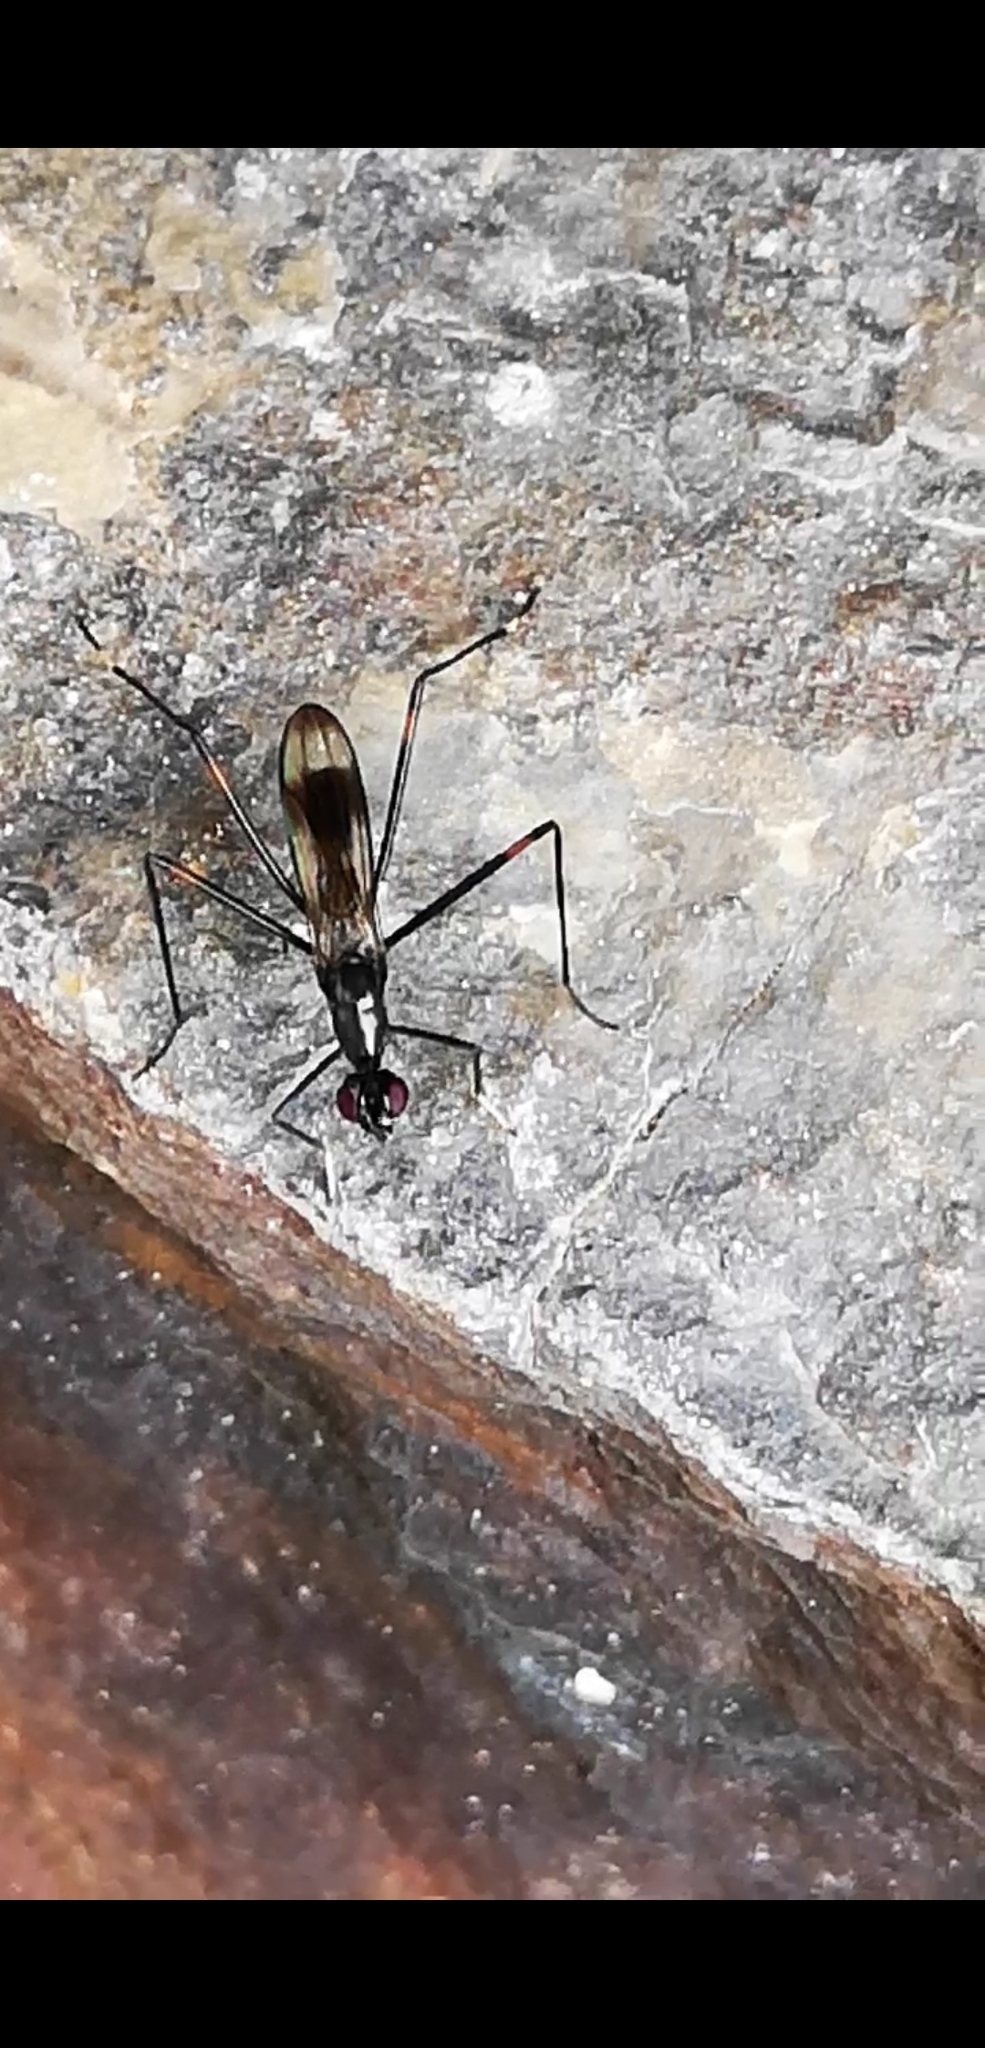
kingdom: Animalia
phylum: Arthropoda
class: Insecta
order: Diptera
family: Micropezidae
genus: Rainieria
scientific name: Rainieria calceata
